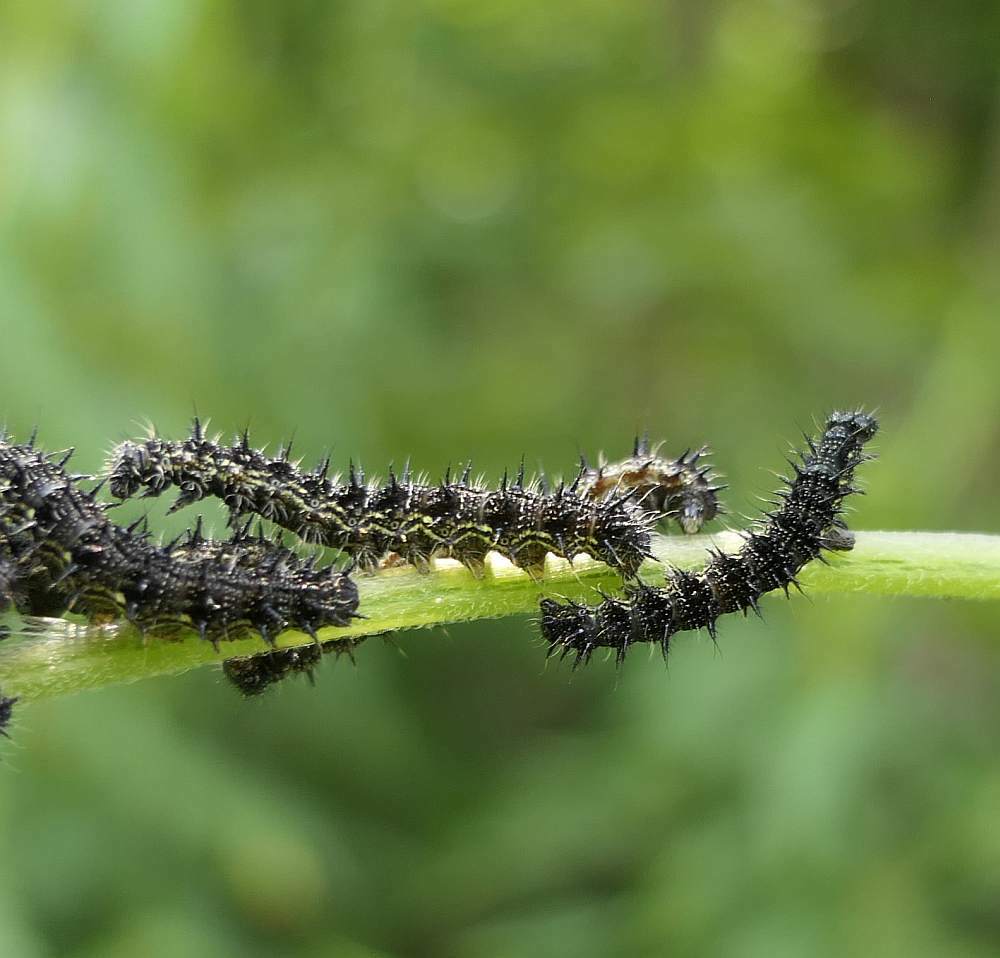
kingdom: Animalia
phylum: Arthropoda
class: Insecta
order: Lepidoptera
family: Nymphalidae
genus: Aglais
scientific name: Aglais milberti
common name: Milbert's tortoiseshell
